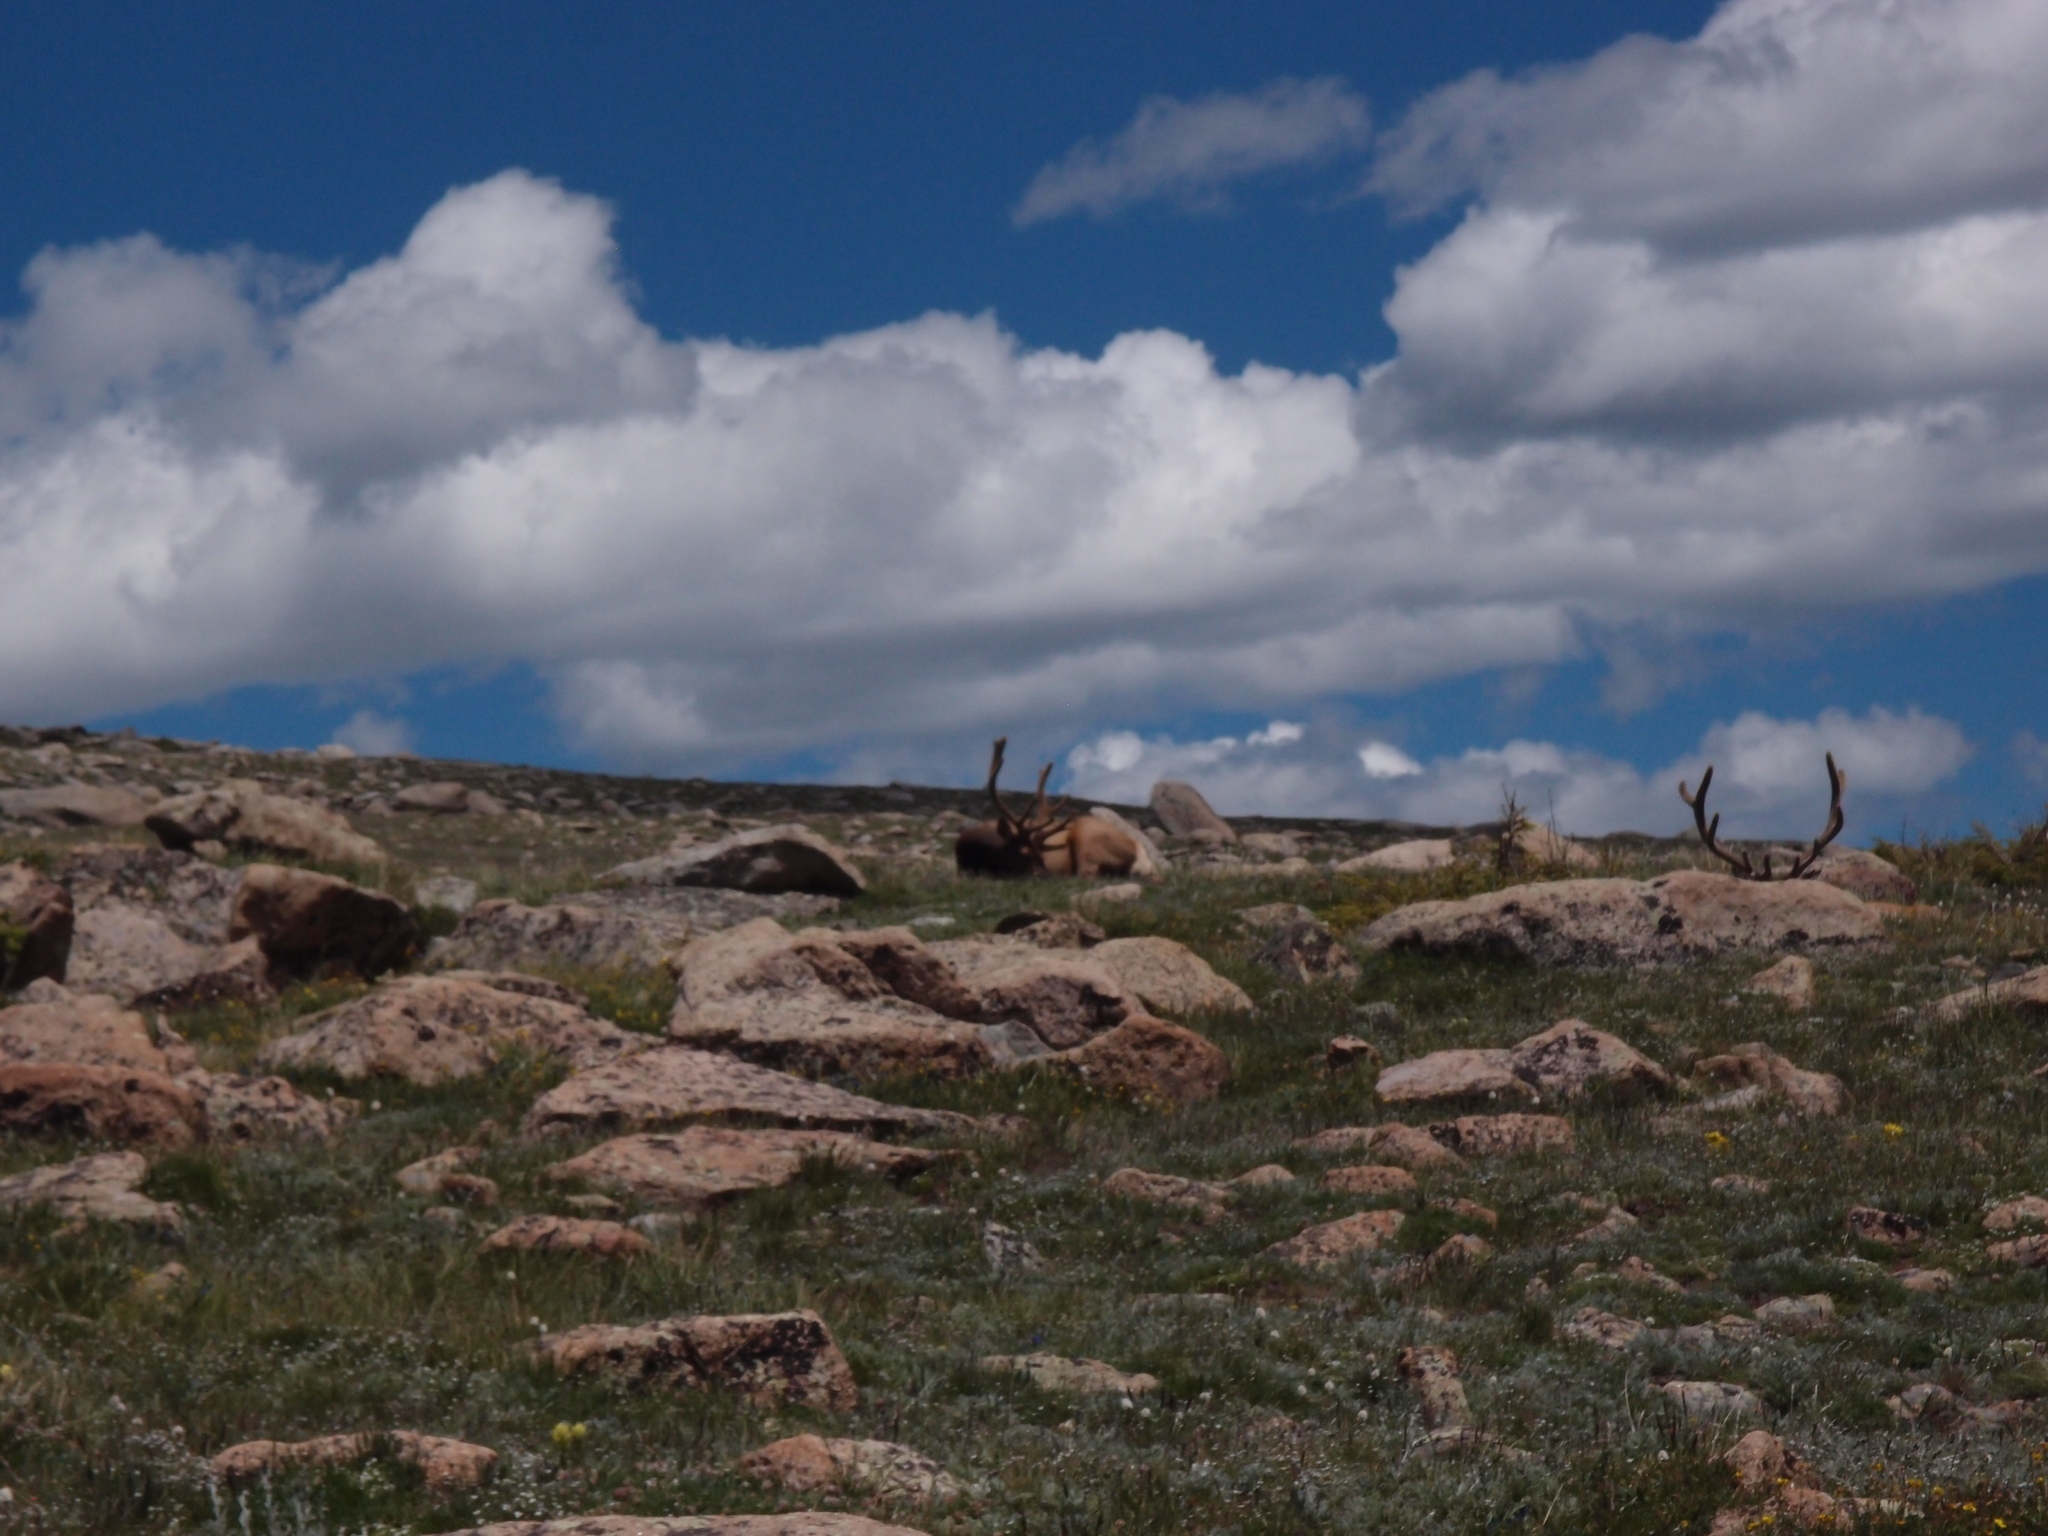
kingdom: Animalia
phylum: Chordata
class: Mammalia
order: Artiodactyla
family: Cervidae
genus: Cervus
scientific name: Cervus elaphus
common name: Red deer
